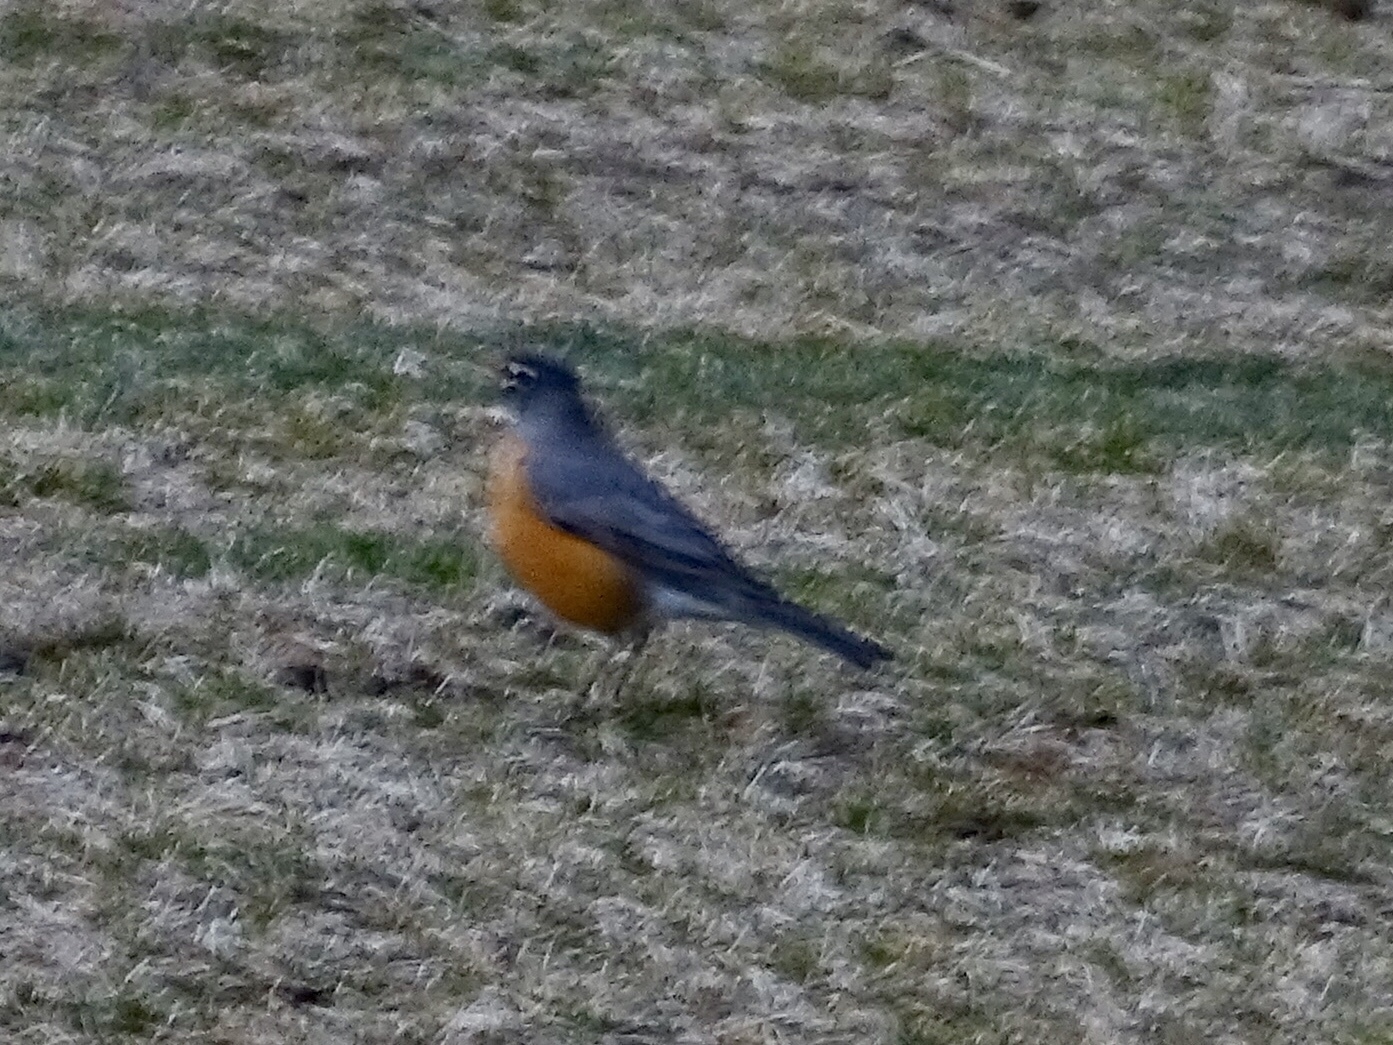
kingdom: Animalia
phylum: Chordata
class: Aves
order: Passeriformes
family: Turdidae
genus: Turdus
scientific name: Turdus migratorius
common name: American robin
